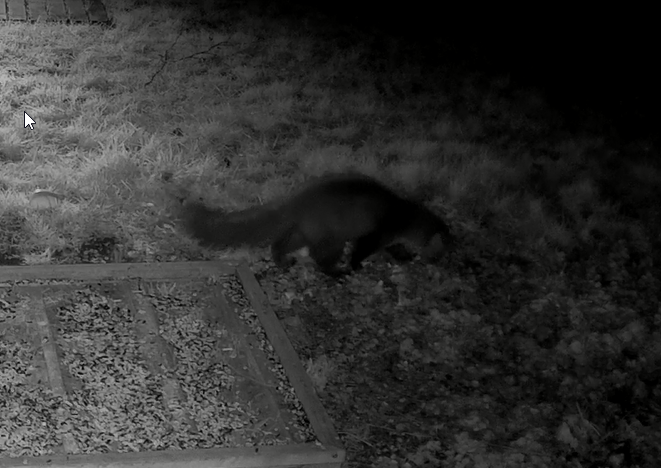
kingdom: Animalia
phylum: Chordata
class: Mammalia
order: Carnivora
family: Mustelidae
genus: Martes
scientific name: Martes foina
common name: Beech marten
